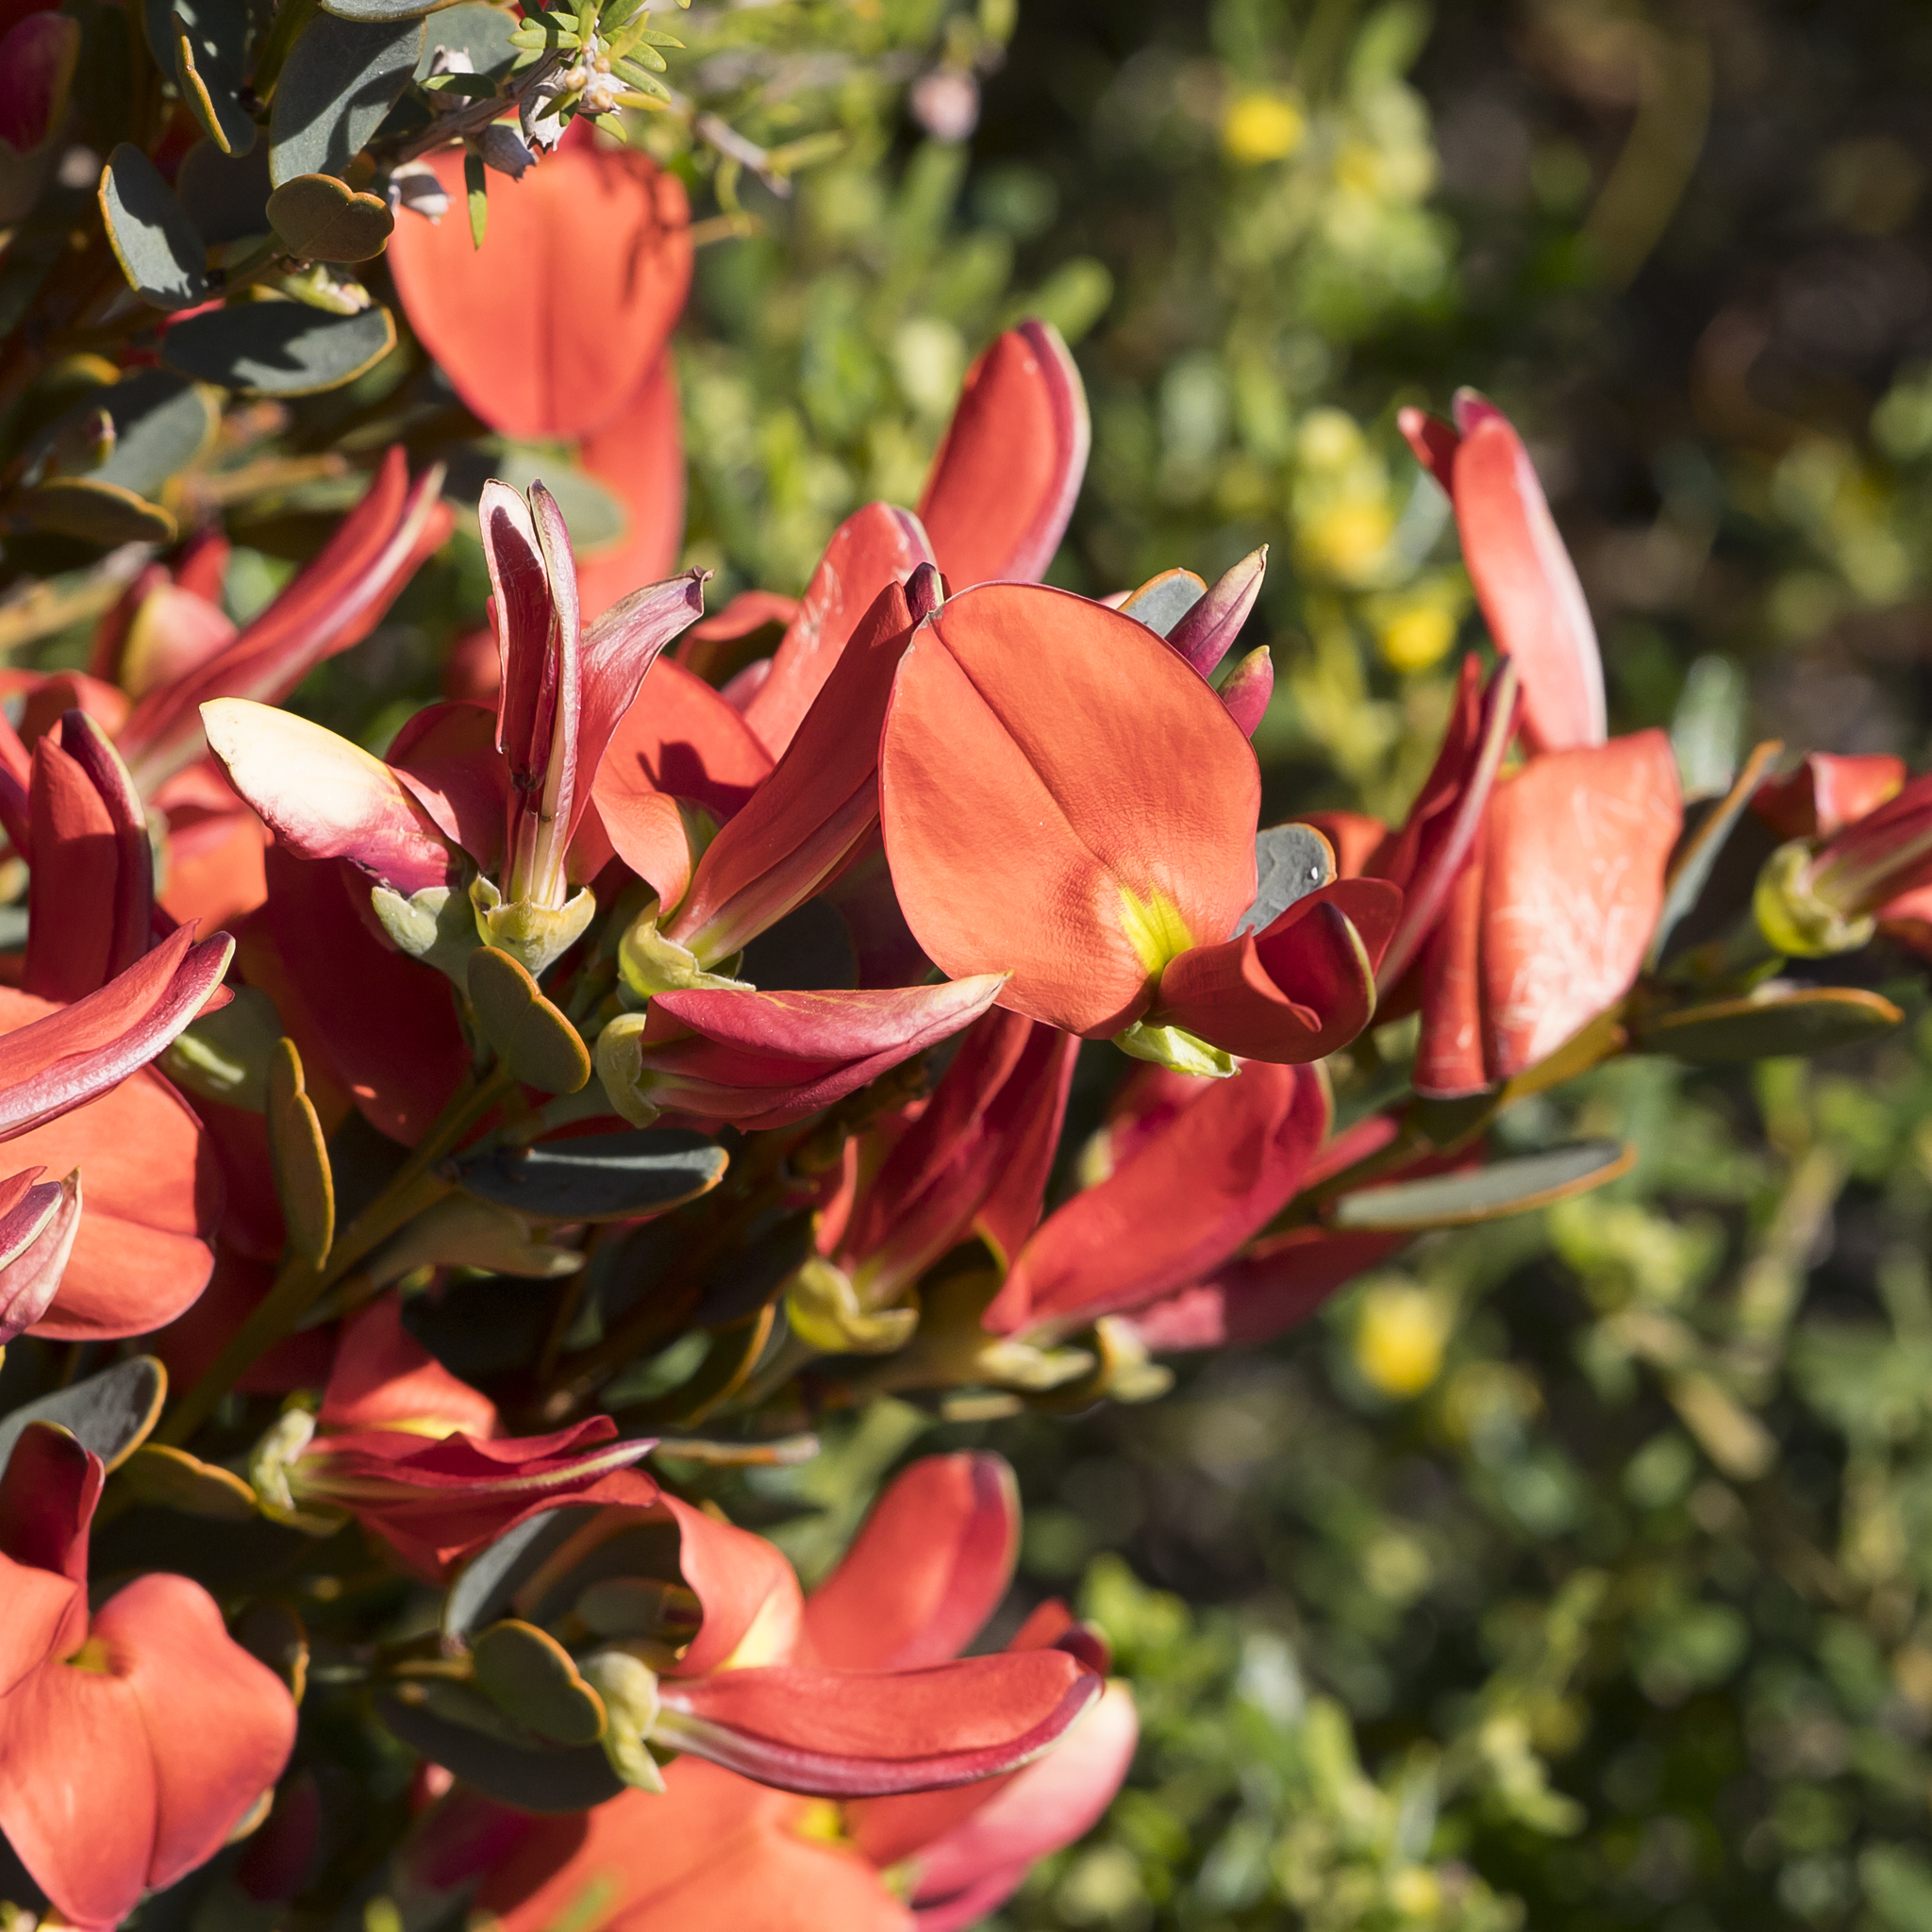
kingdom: Plantae
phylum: Tracheophyta
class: Magnoliopsida
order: Fabales
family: Fabaceae
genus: Templetonia
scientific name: Templetonia retusa
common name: Cockies'-tongue
